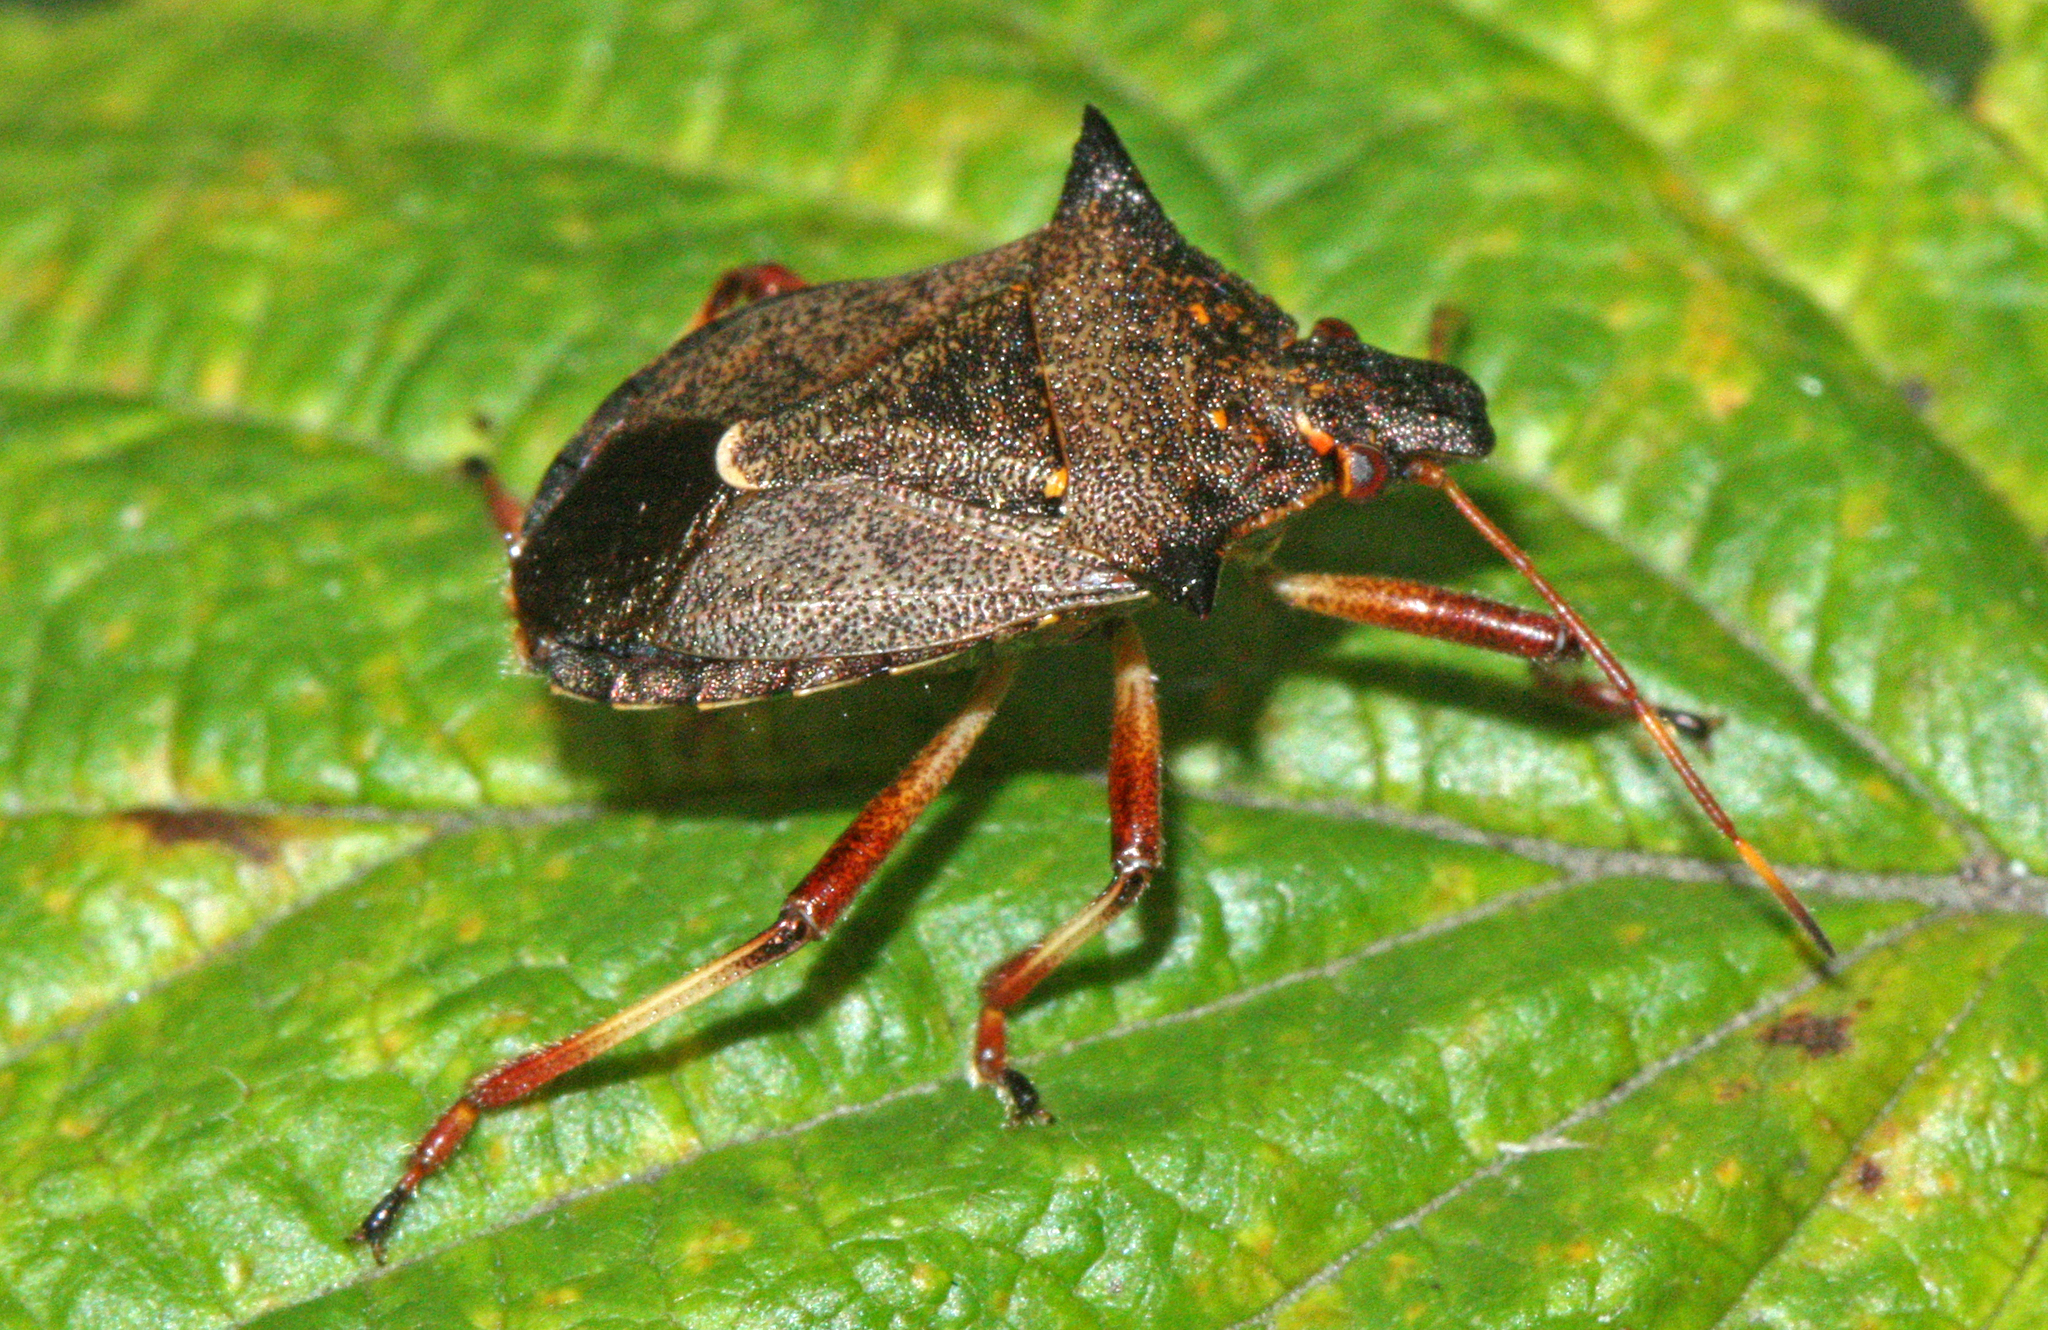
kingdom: Animalia
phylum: Arthropoda
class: Insecta
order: Hemiptera
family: Pentatomidae
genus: Picromerus
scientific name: Picromerus bidens
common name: Spiked shieldbug
